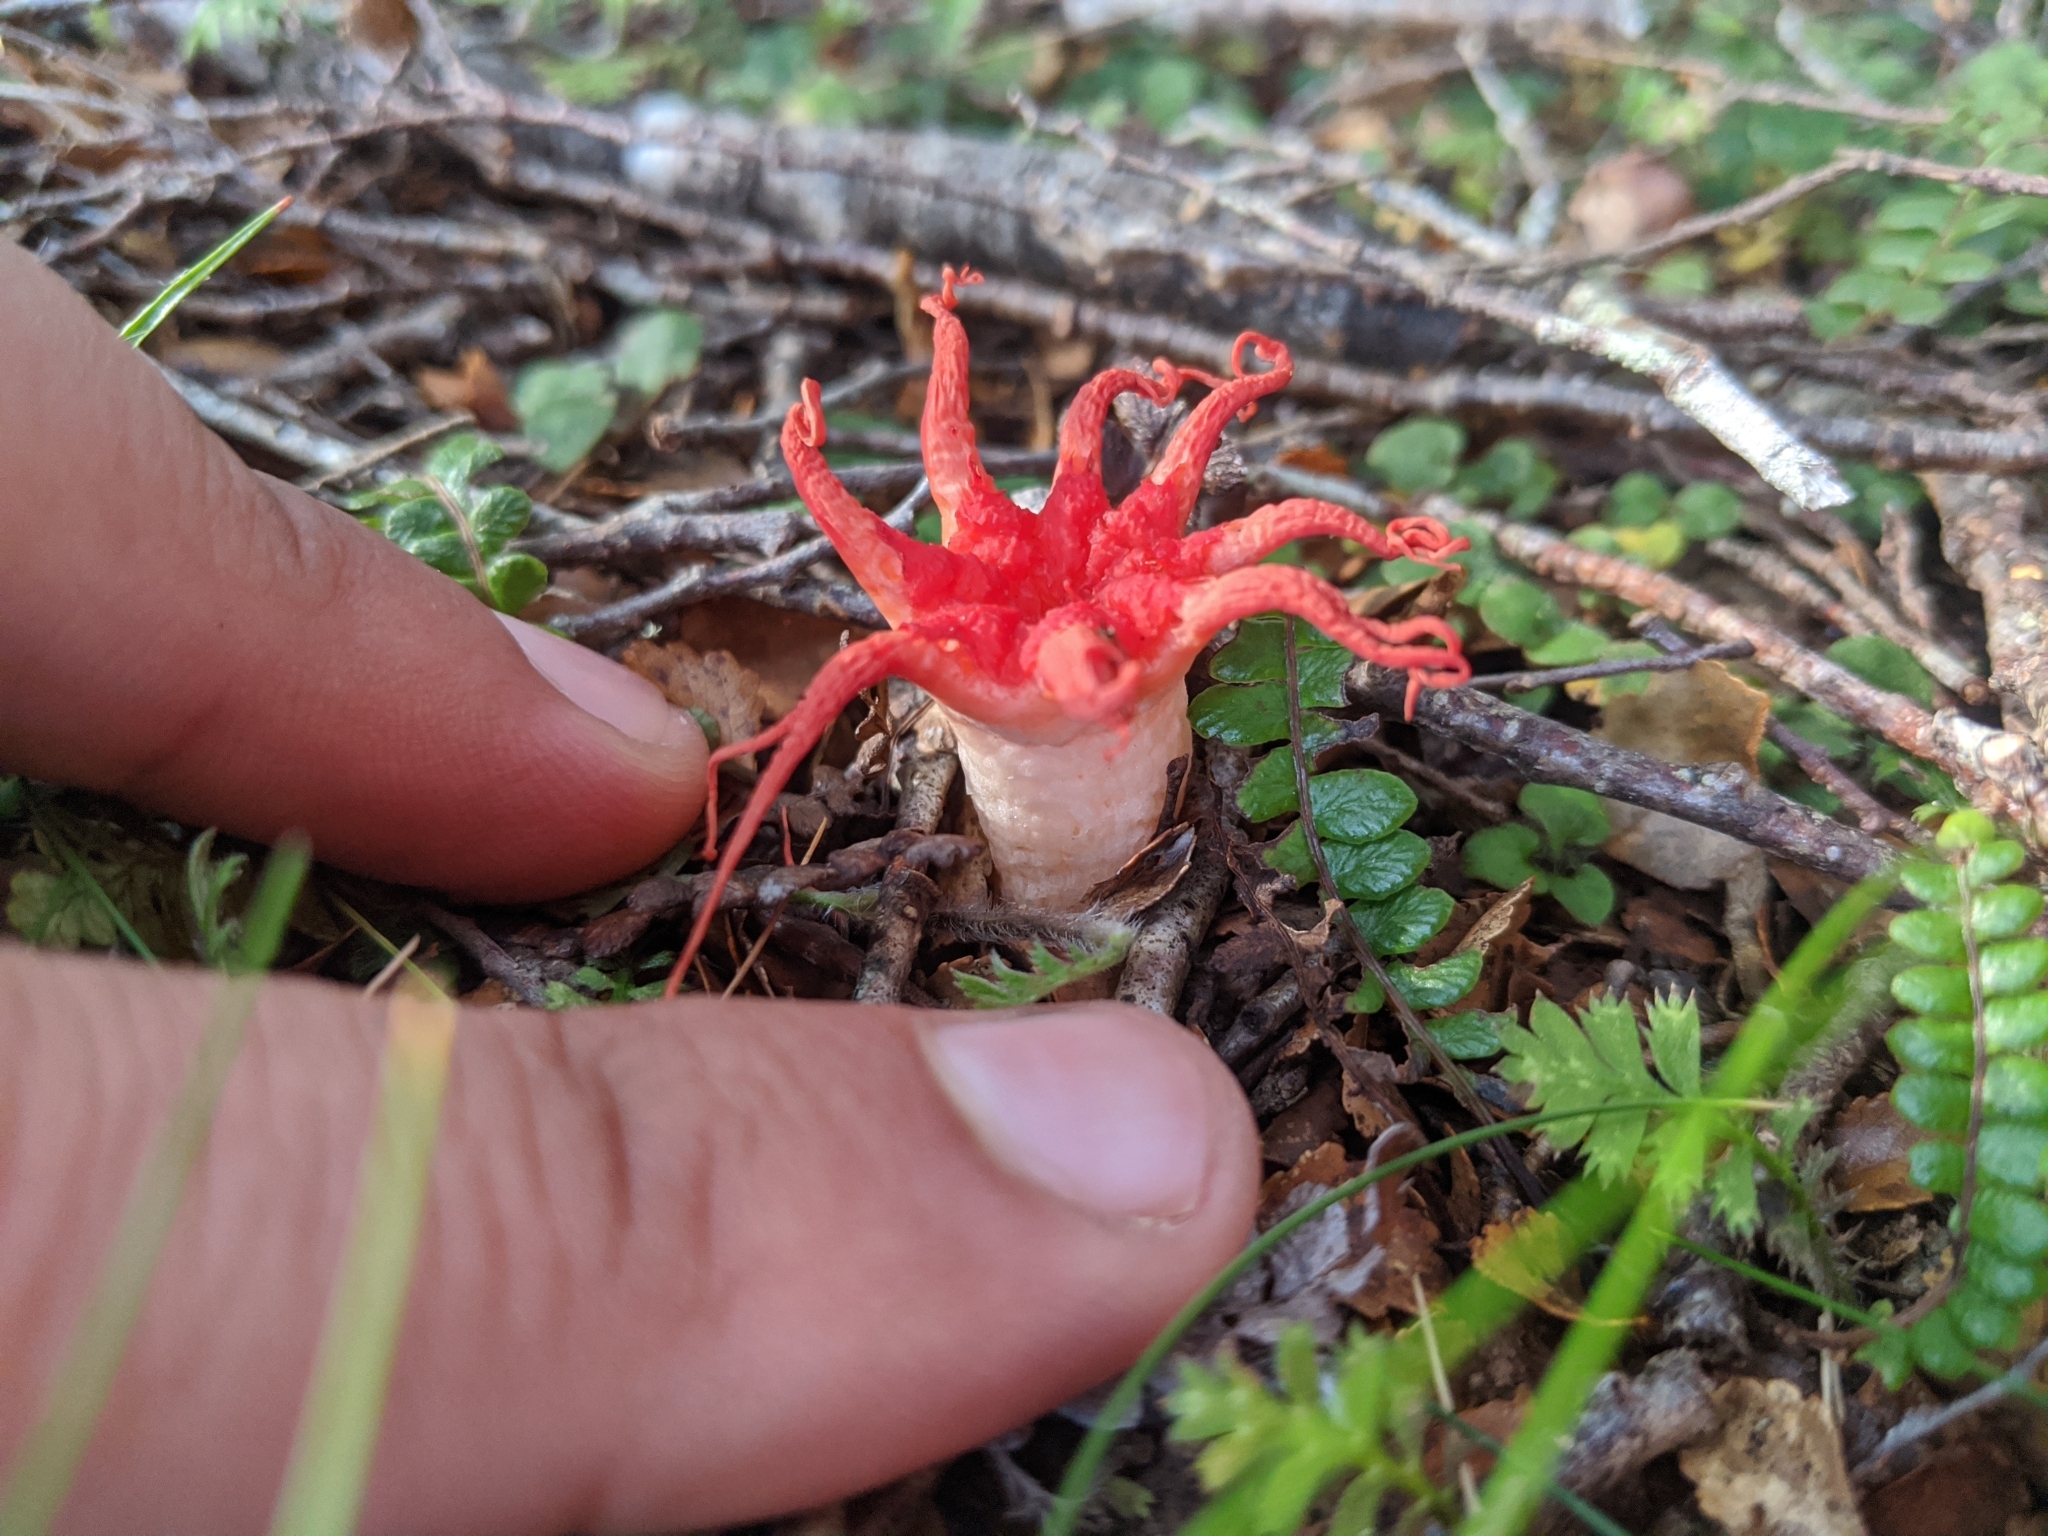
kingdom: Fungi
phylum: Basidiomycota
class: Agaricomycetes
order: Phallales
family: Phallaceae
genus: Aseroe
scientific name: Aseroe rubra
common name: Starfish fungus
